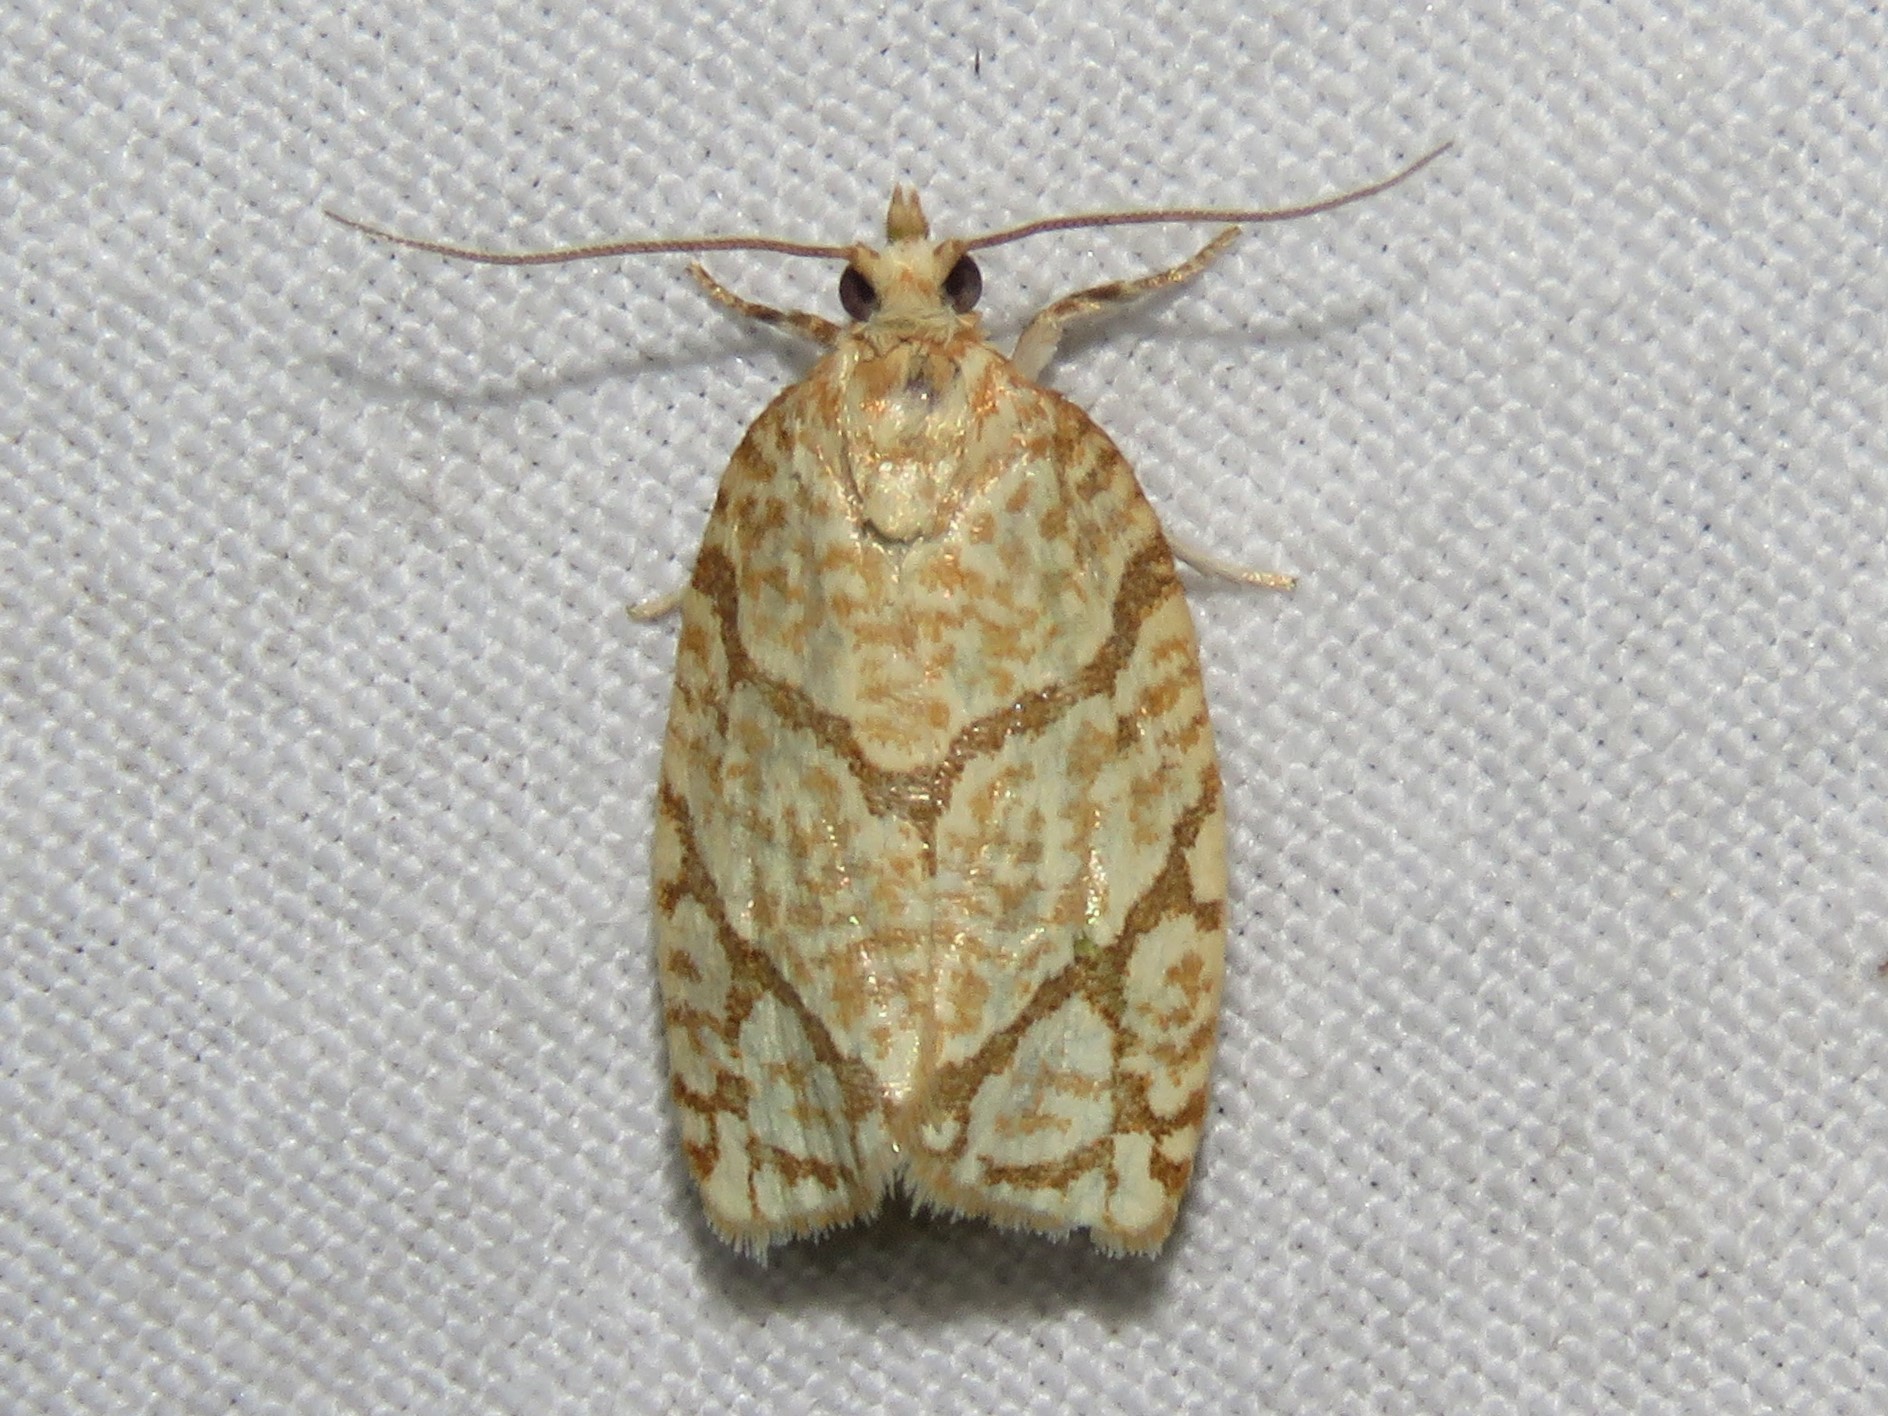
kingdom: Animalia
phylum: Arthropoda
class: Insecta
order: Lepidoptera
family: Tortricidae
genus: Argyrotaenia
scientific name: Argyrotaenia quercifoliana
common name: Yellow-winged oak leafroller moth
